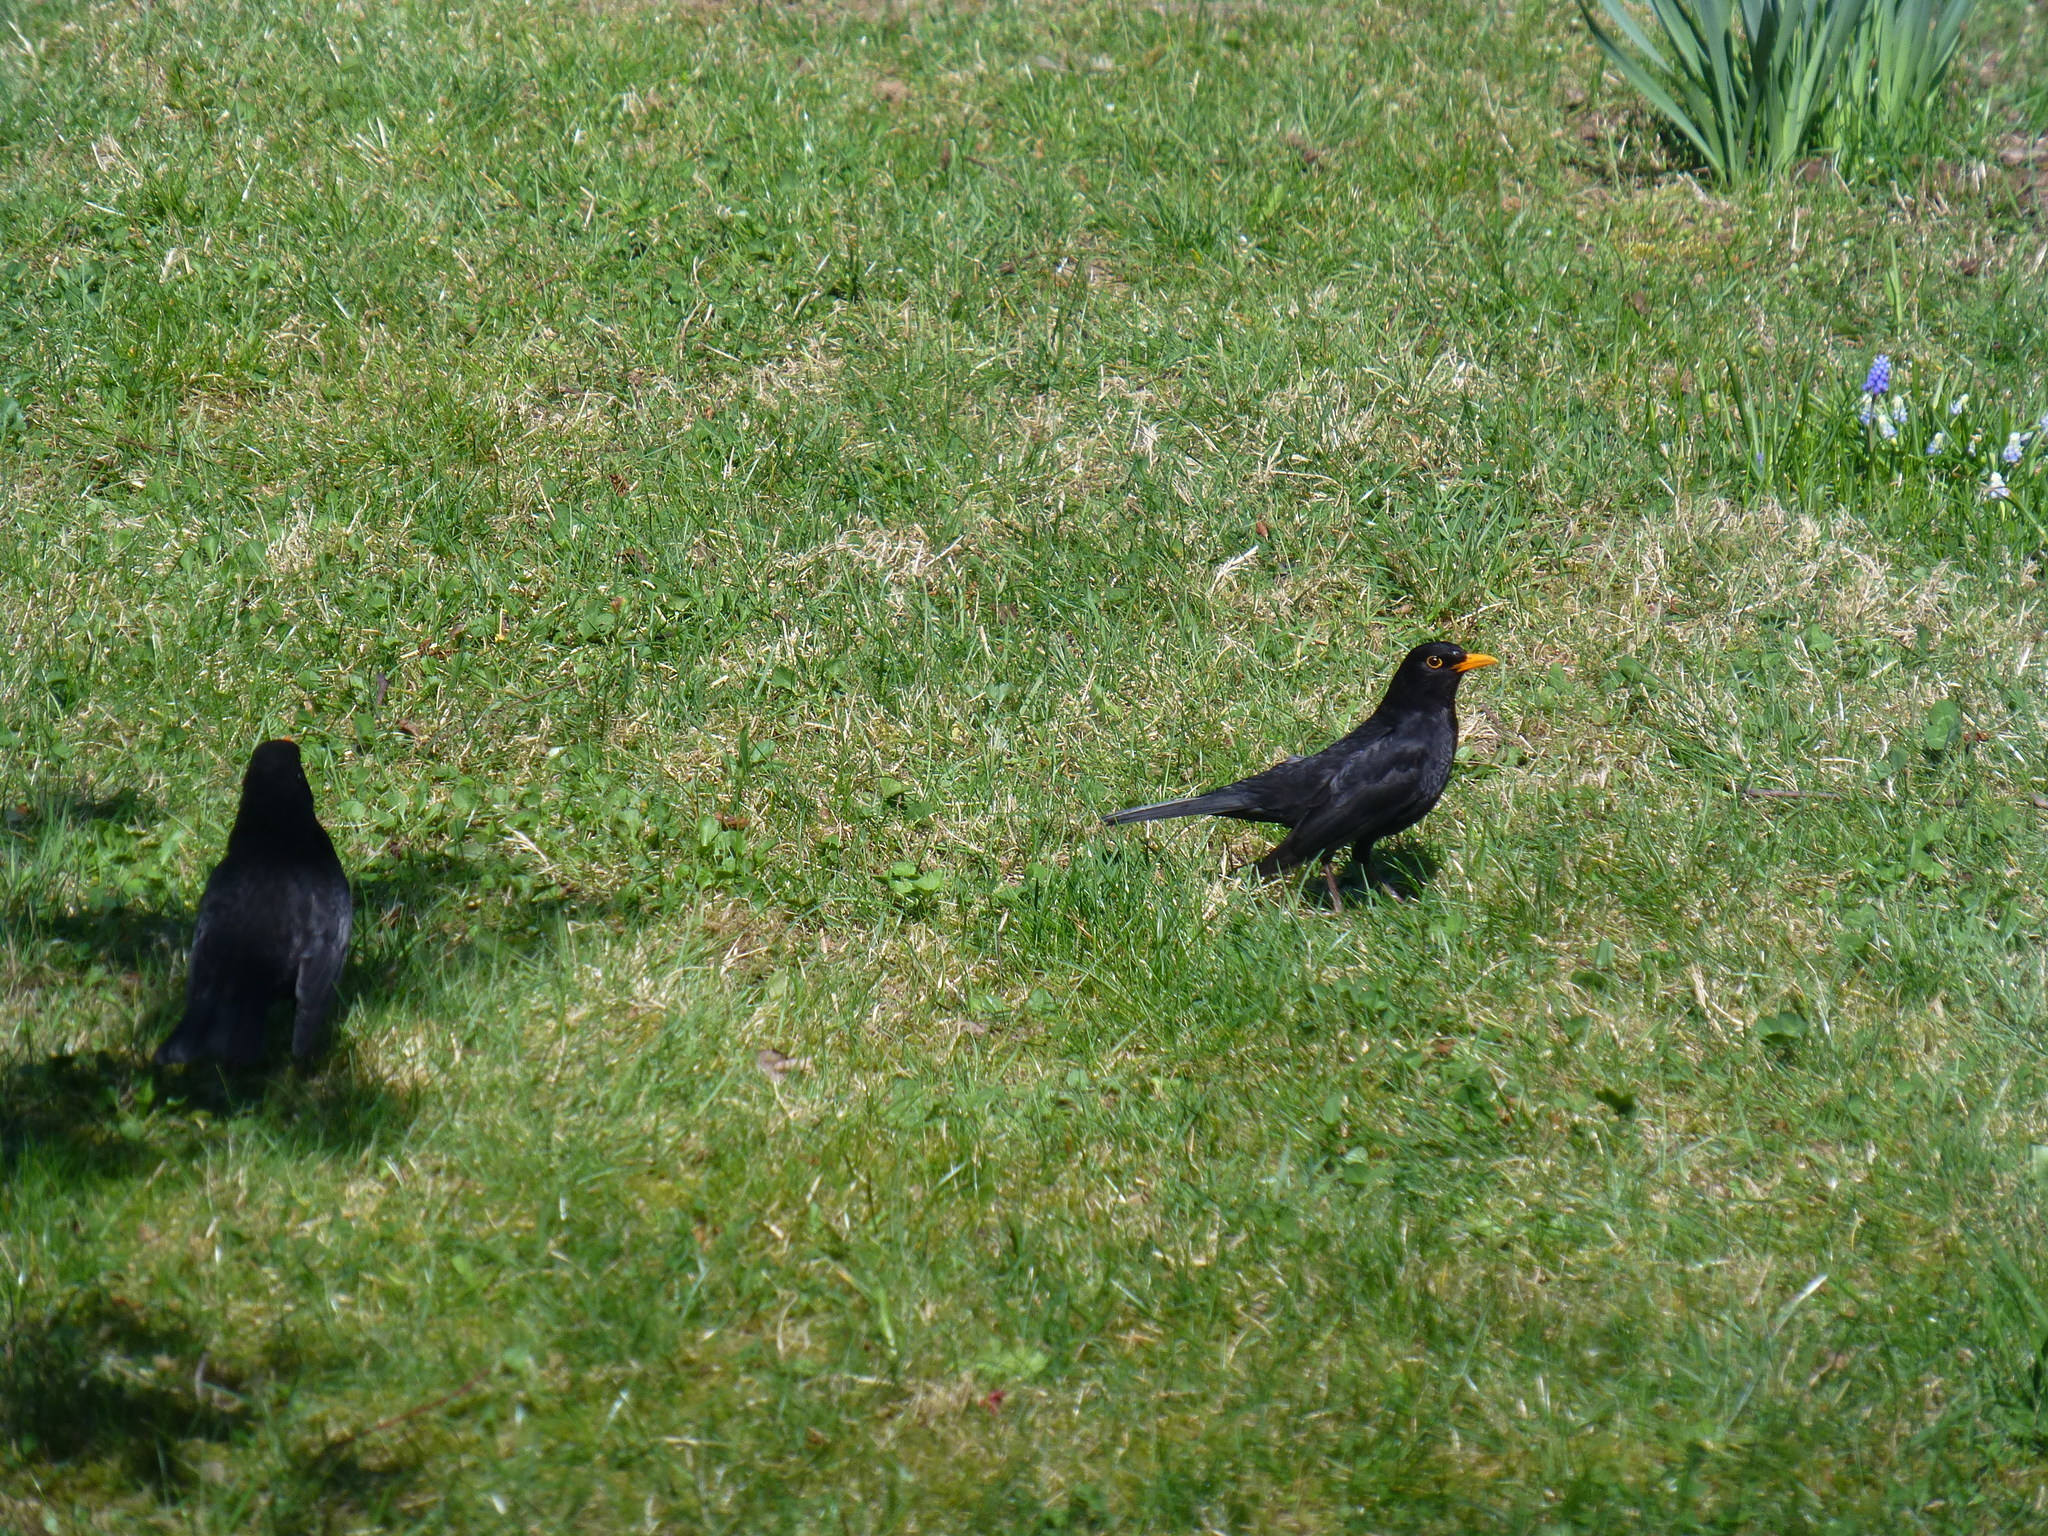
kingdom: Animalia
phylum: Chordata
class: Aves
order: Passeriformes
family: Turdidae
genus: Turdus
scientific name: Turdus merula
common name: Common blackbird
